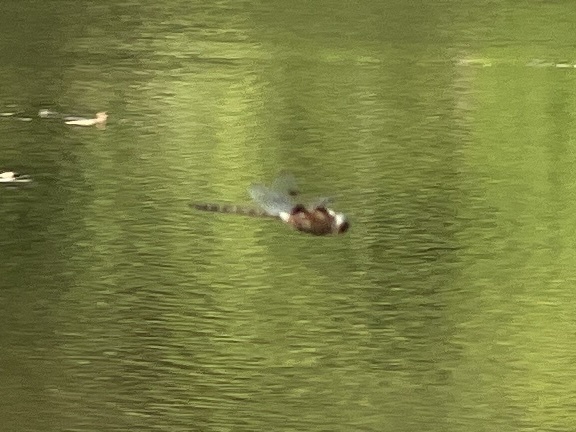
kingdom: Animalia
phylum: Arthropoda
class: Insecta
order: Odonata
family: Corduliidae
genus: Epitheca
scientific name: Epitheca princeps
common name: Prince baskettail
